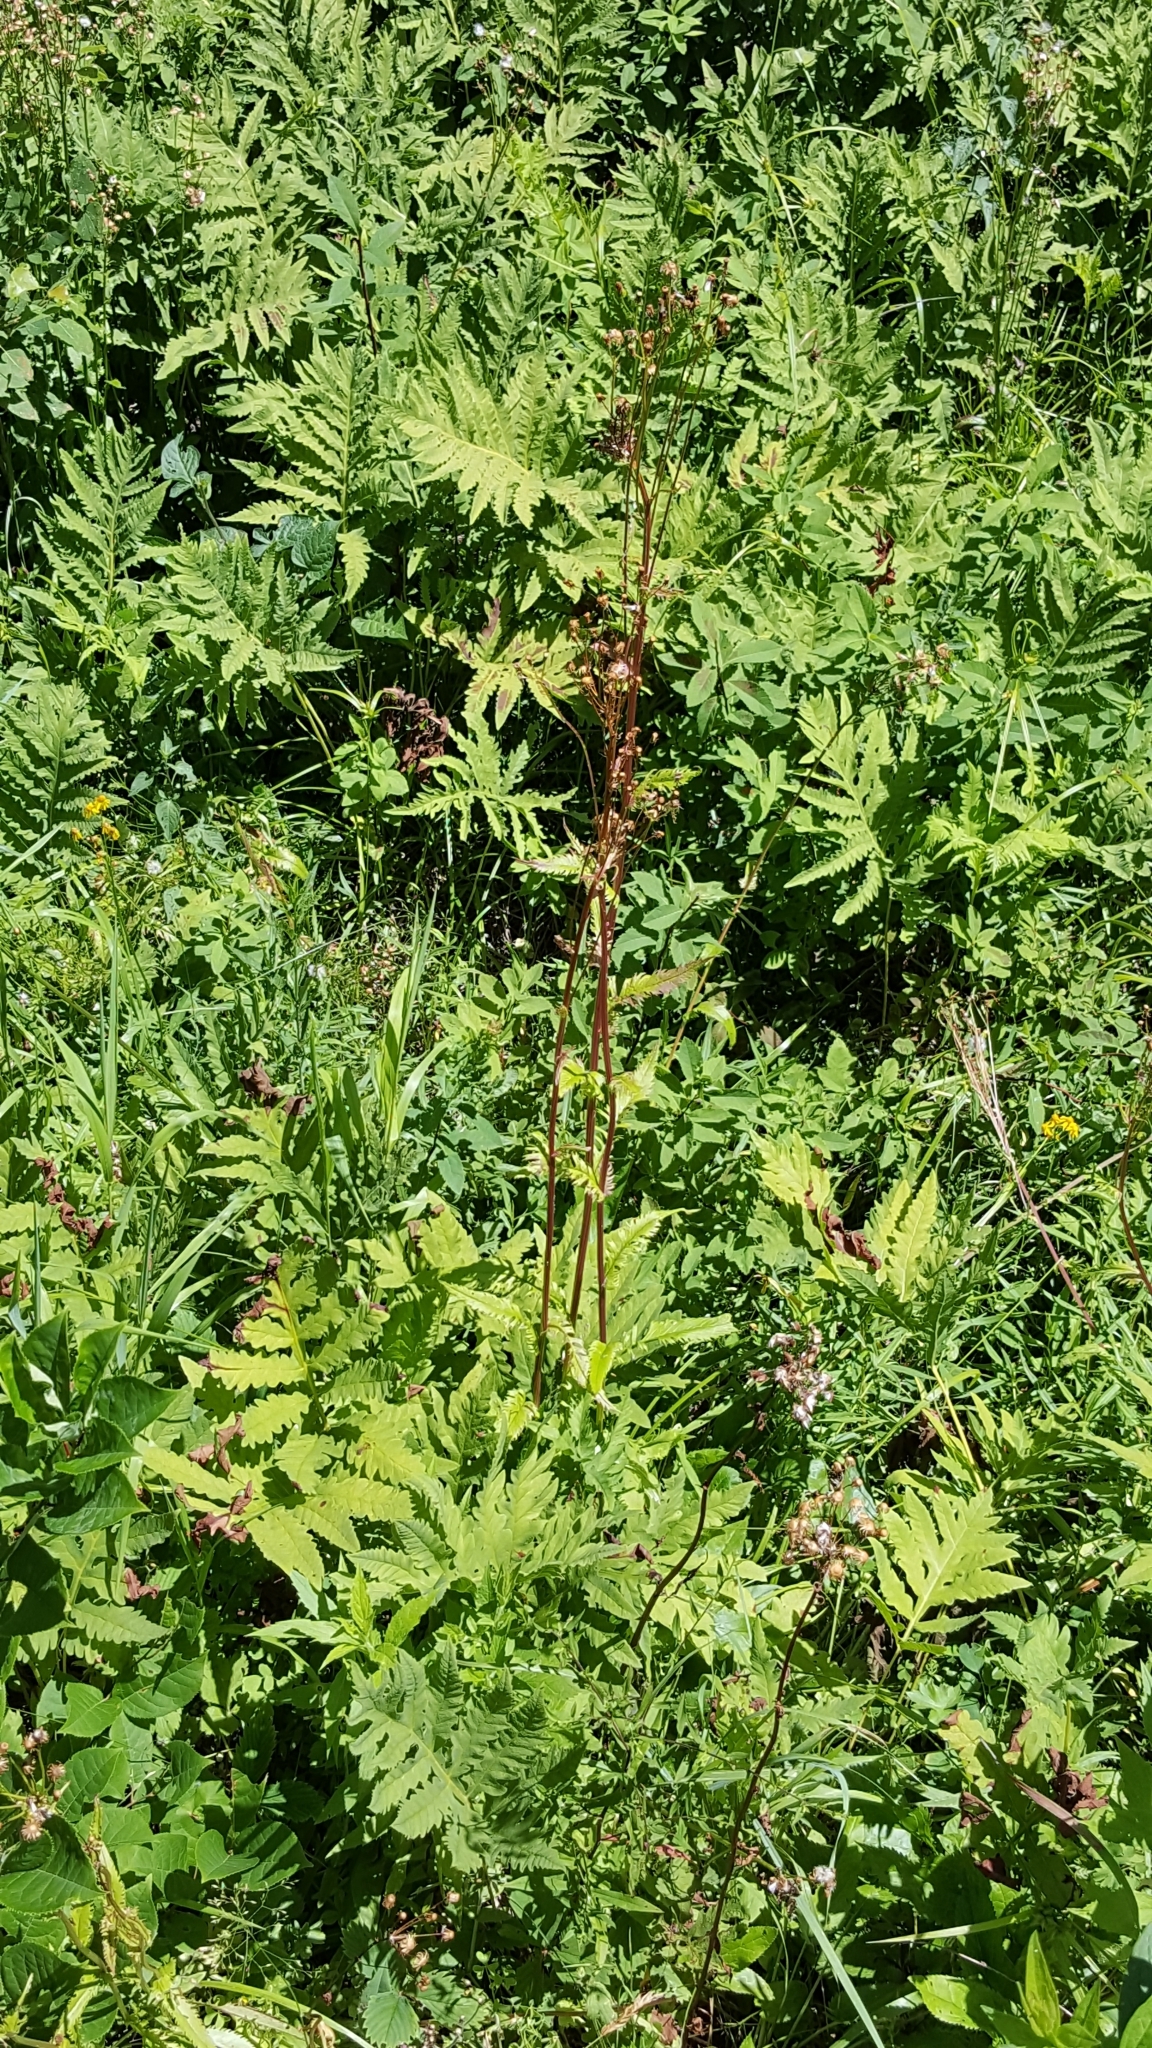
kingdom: Plantae
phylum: Tracheophyta
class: Magnoliopsida
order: Asterales
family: Asteraceae
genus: Packera
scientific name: Packera schweinitziana
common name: Schweinitz's ragwort
